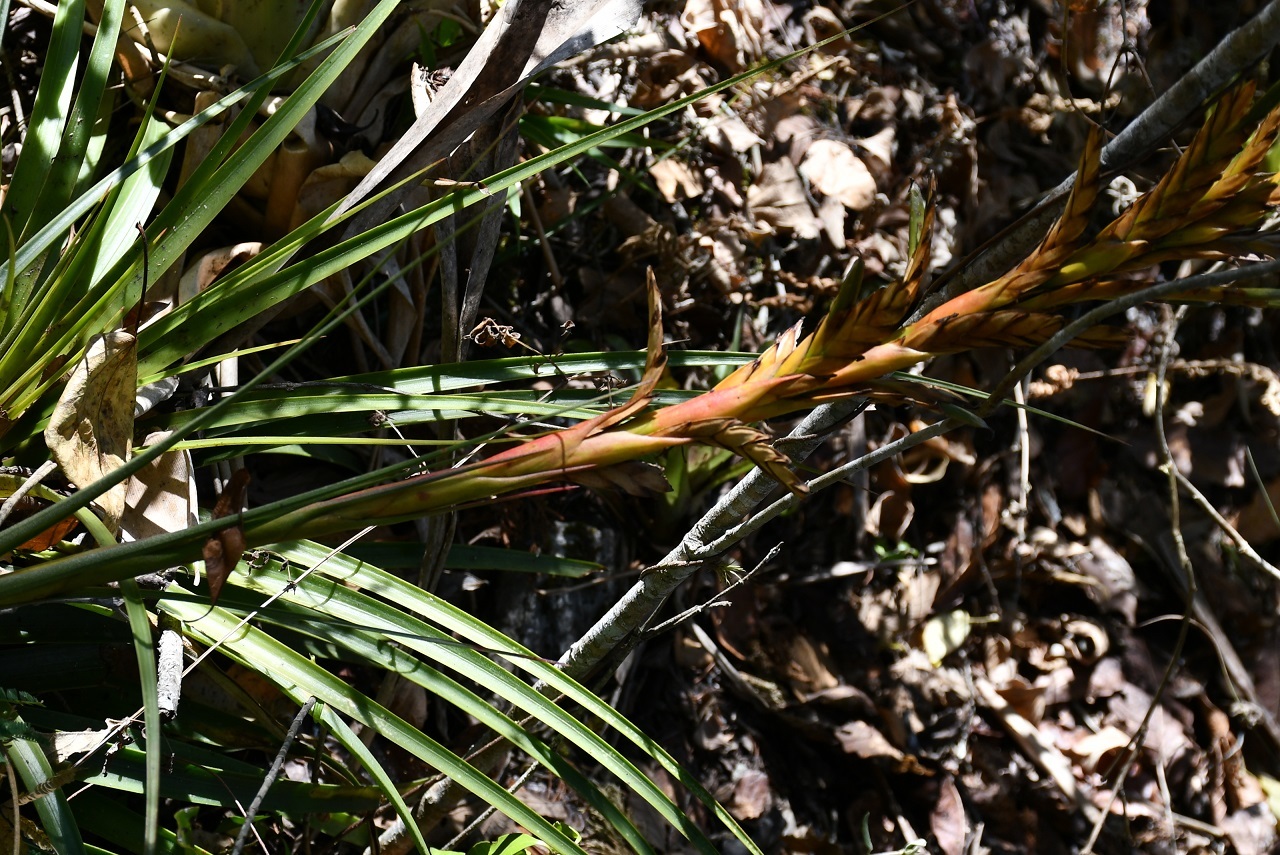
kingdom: Plantae
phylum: Tracheophyta
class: Liliopsida
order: Poales
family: Bromeliaceae
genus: Tillandsia
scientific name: Tillandsia rodrigueziana
